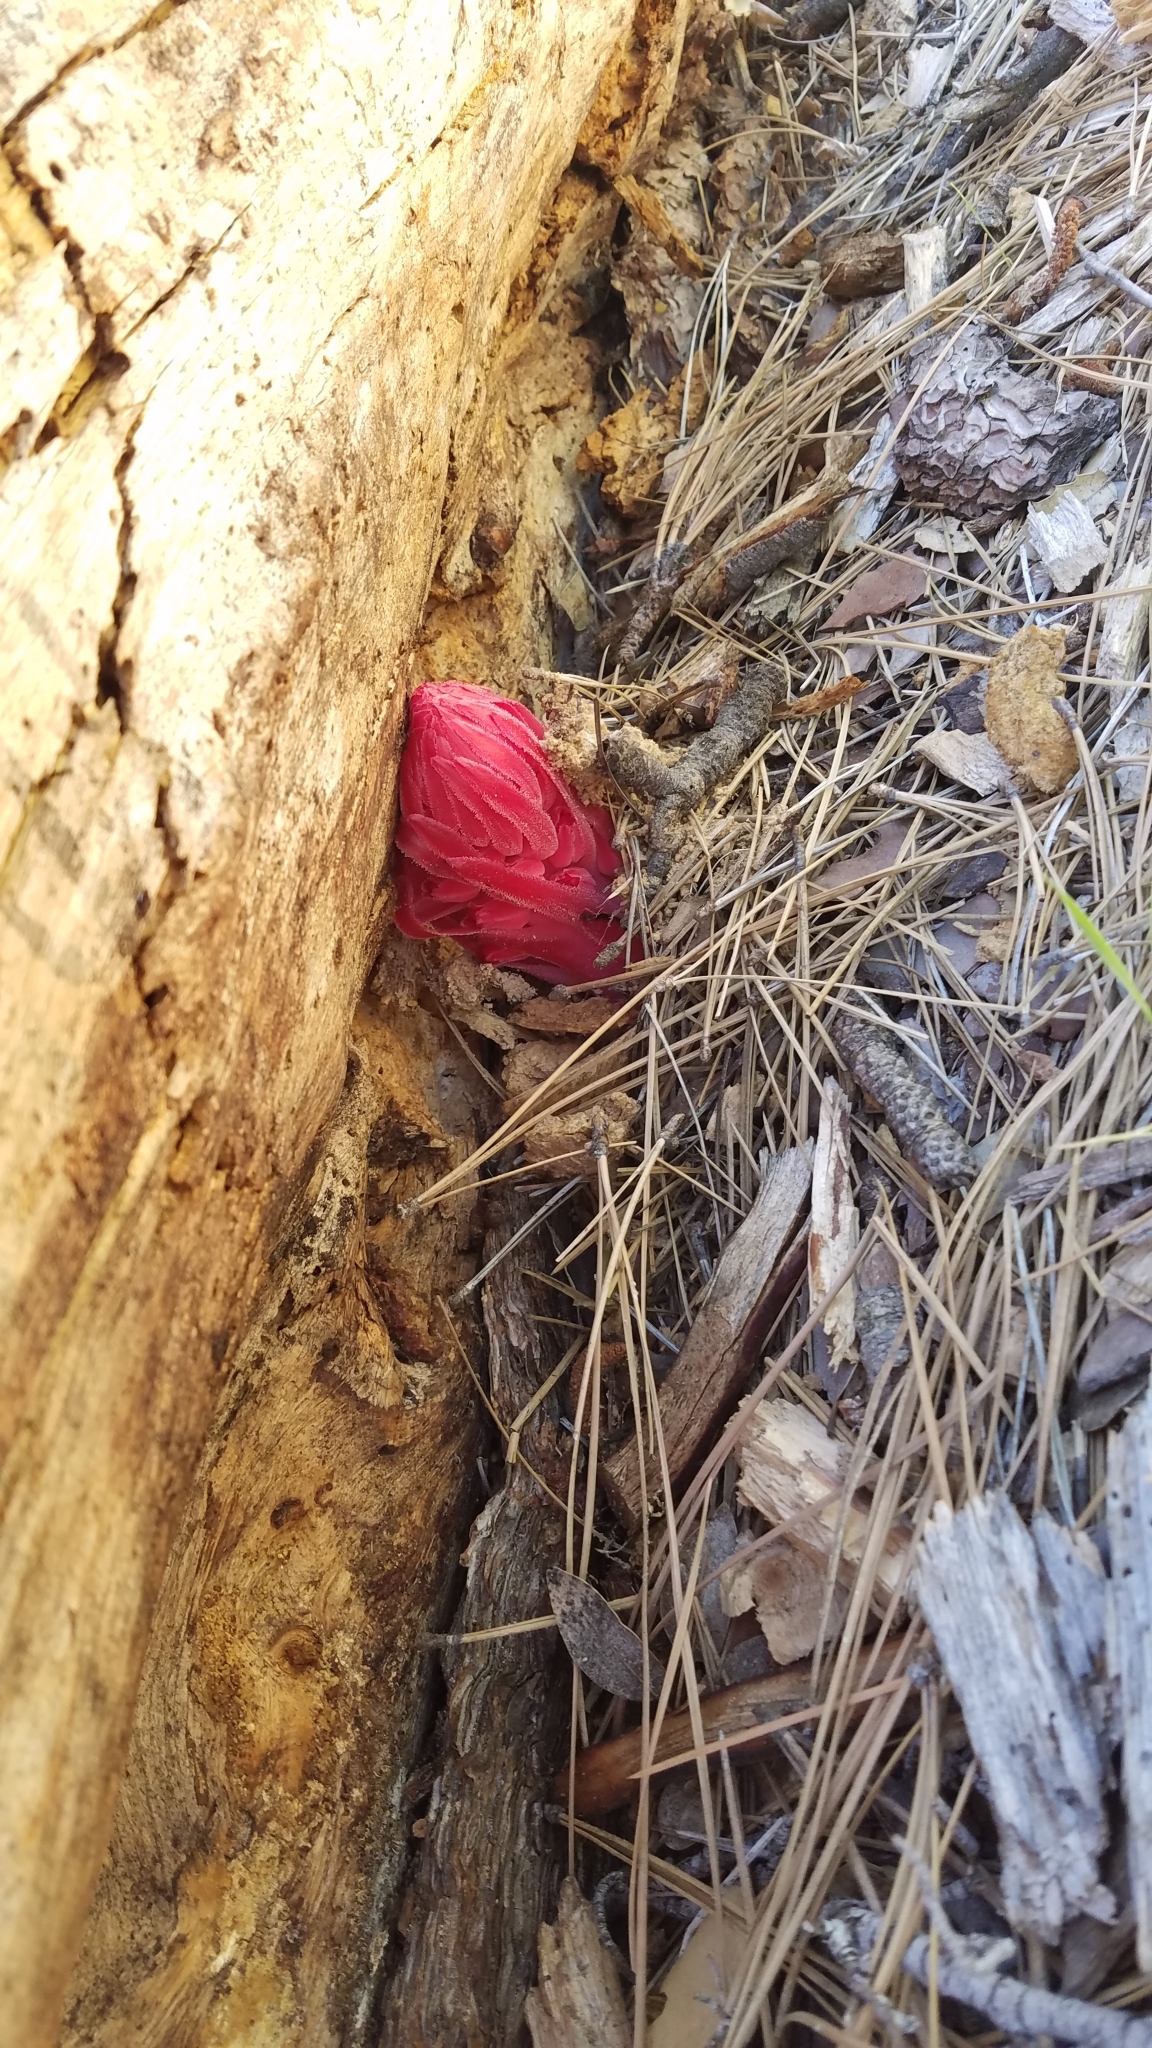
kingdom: Plantae
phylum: Tracheophyta
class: Magnoliopsida
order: Ericales
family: Ericaceae
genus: Sarcodes
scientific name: Sarcodes sanguinea
